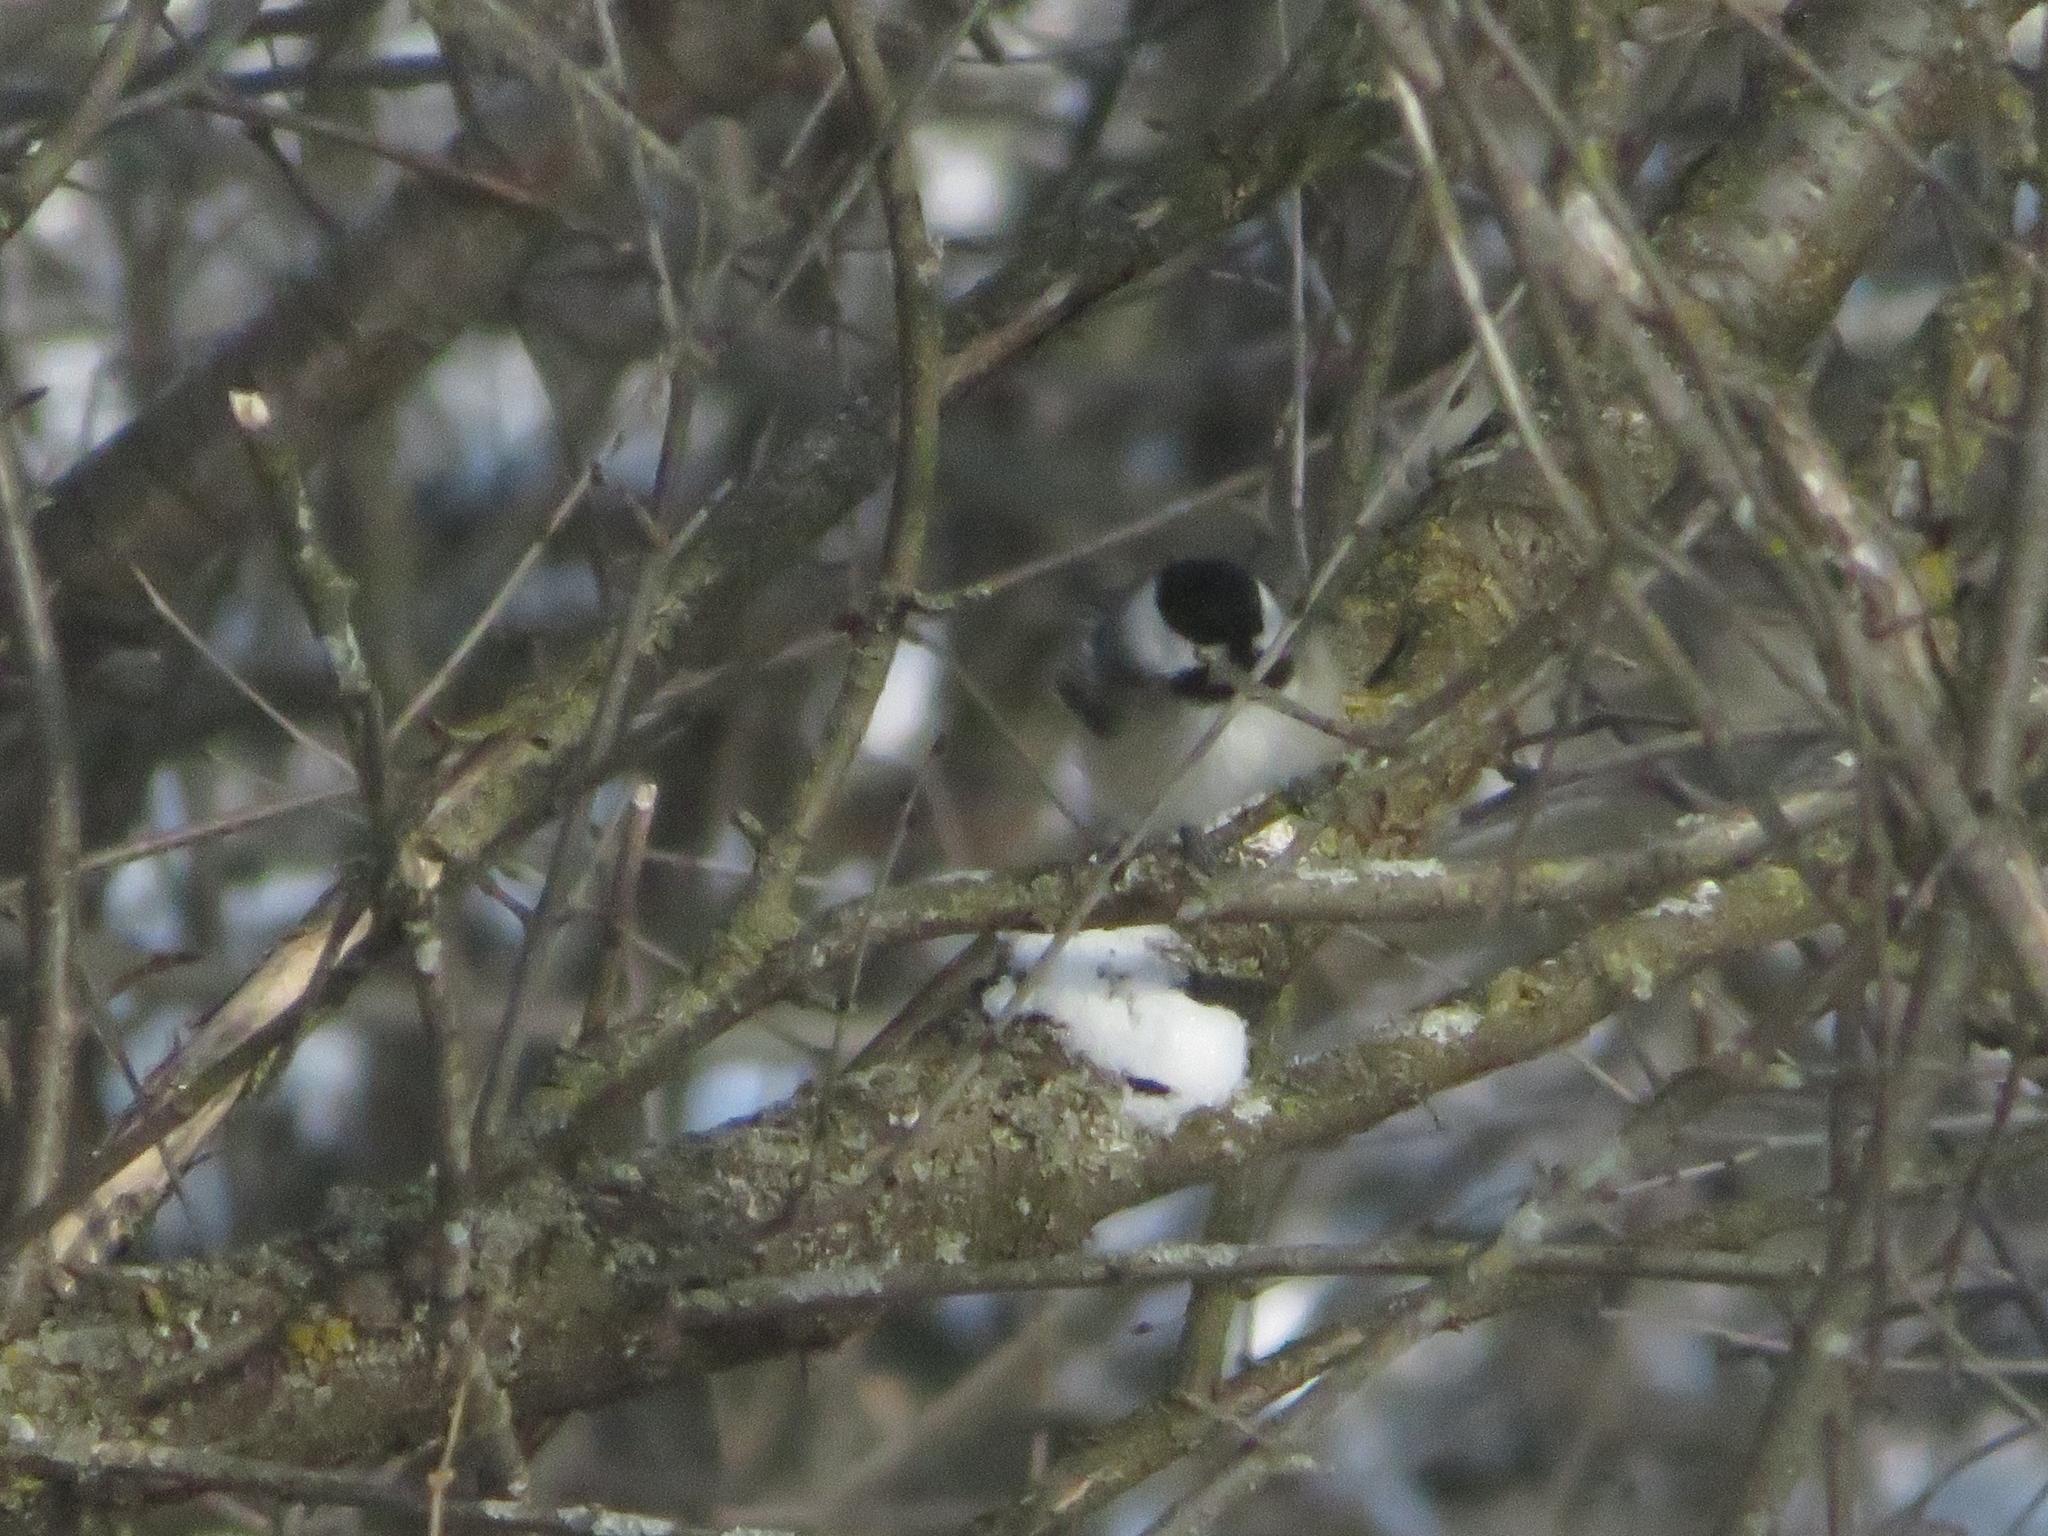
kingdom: Animalia
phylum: Chordata
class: Aves
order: Passeriformes
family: Paridae
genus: Poecile
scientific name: Poecile atricapillus
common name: Black-capped chickadee
